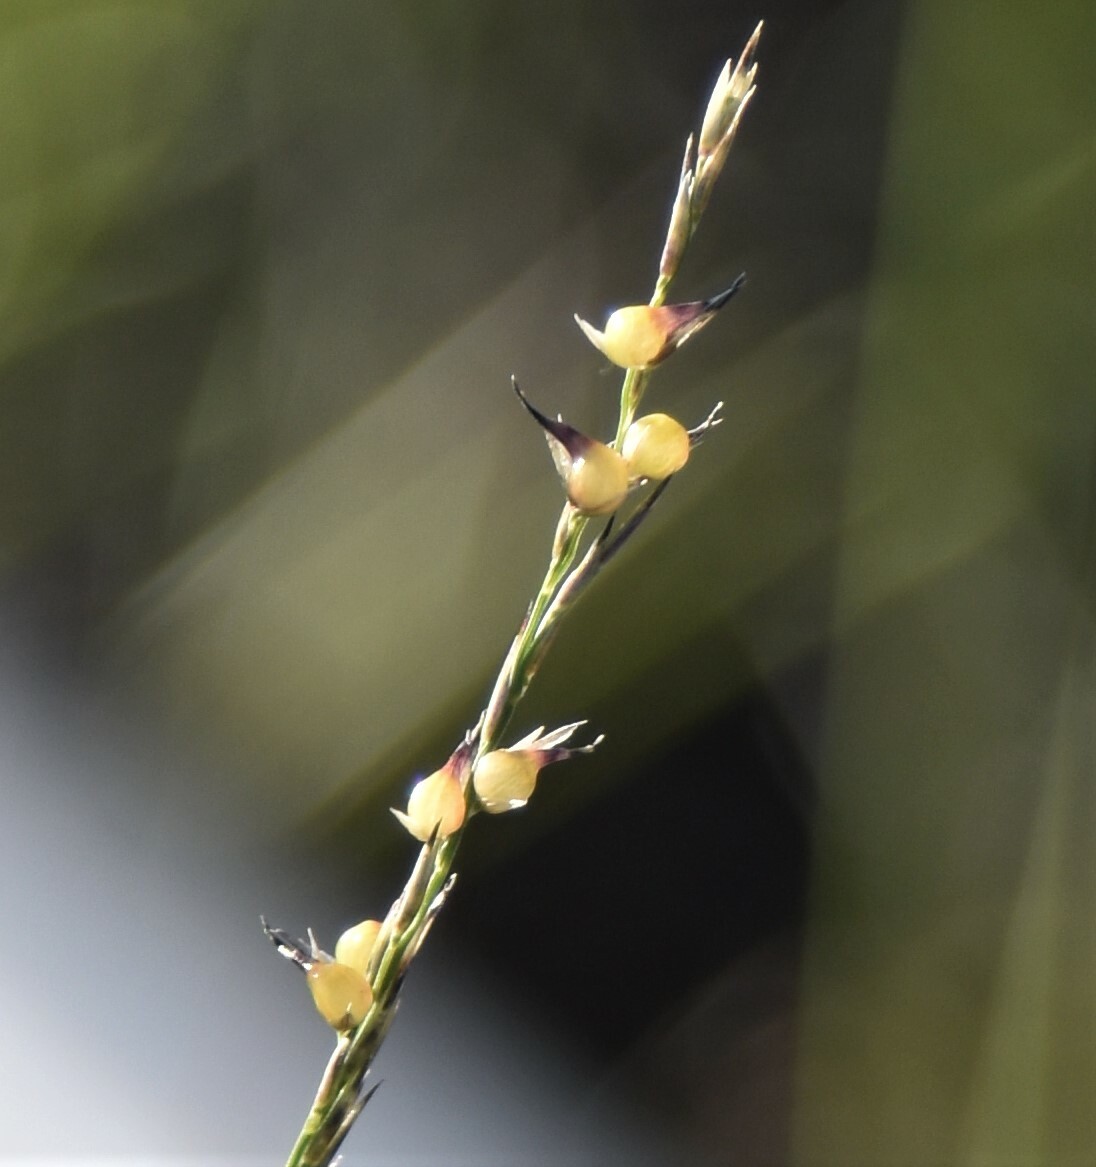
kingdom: Plantae
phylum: Tracheophyta
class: Liliopsida
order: Poales
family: Poaceae
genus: Muhlenbergia
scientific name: Muhlenbergia cuspidata
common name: Plains muhly
